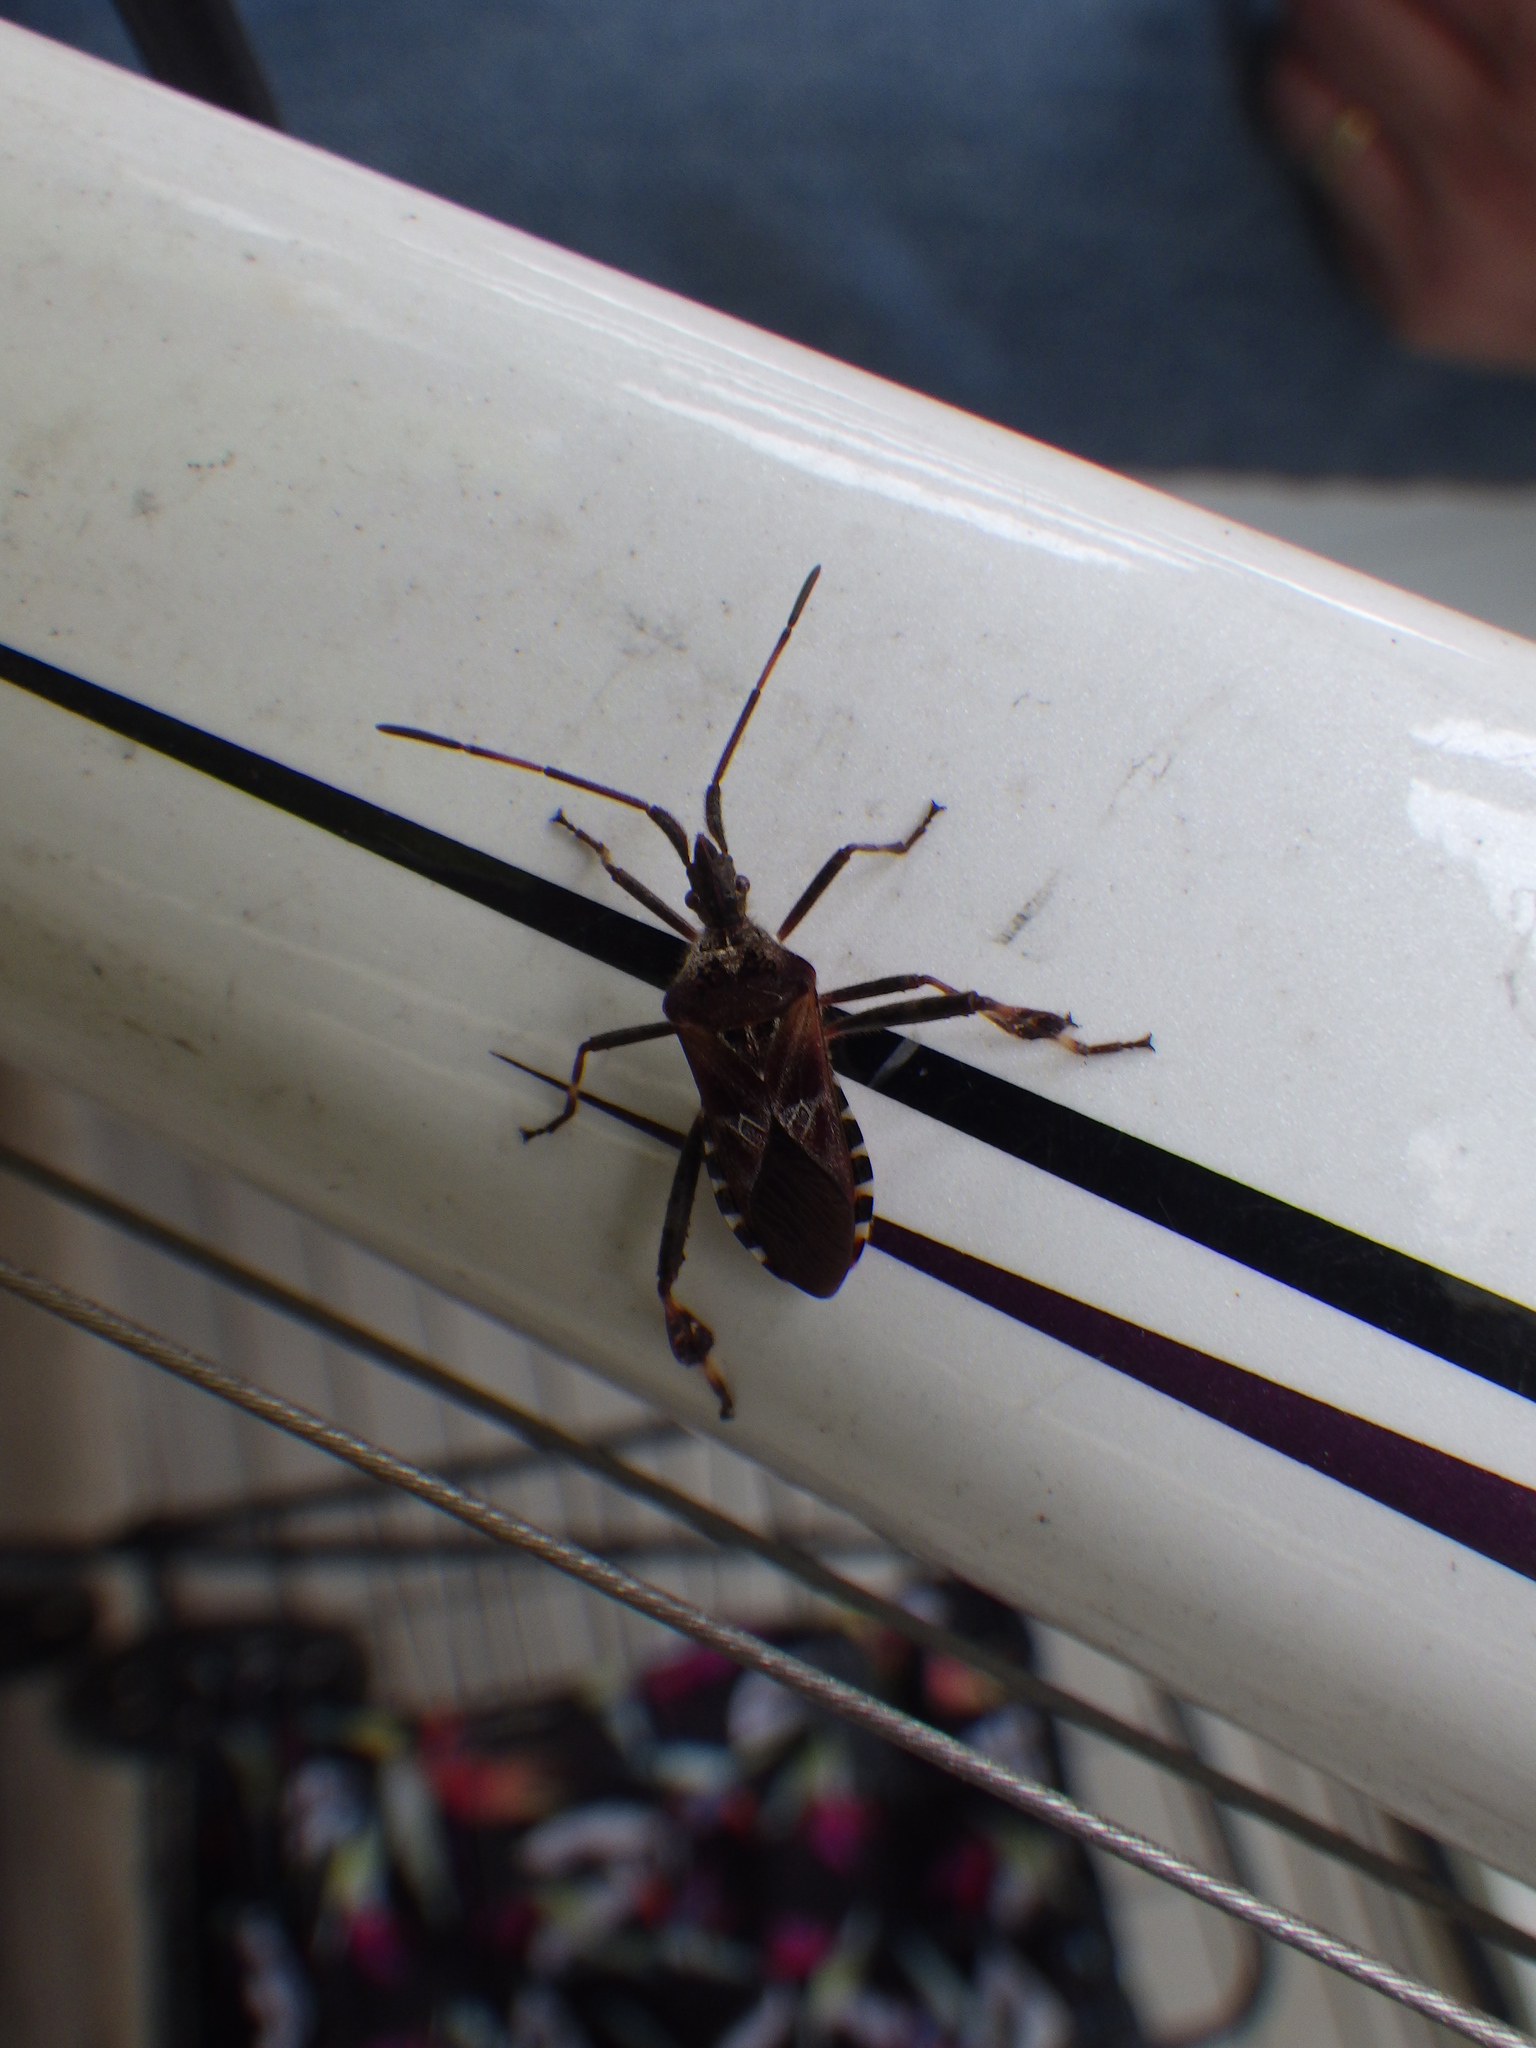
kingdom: Animalia
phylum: Arthropoda
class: Insecta
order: Hemiptera
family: Coreidae
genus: Leptoglossus
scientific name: Leptoglossus occidentalis
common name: Western conifer-seed bug
